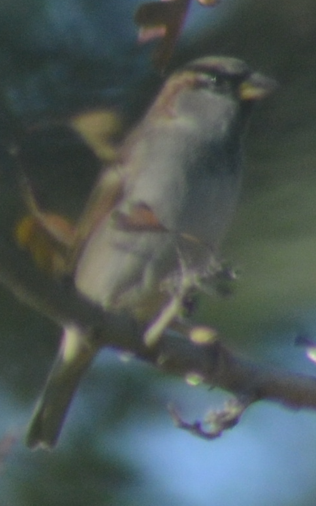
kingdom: Animalia
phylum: Chordata
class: Aves
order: Passeriformes
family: Passeridae
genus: Passer
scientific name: Passer domesticus
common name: House sparrow
